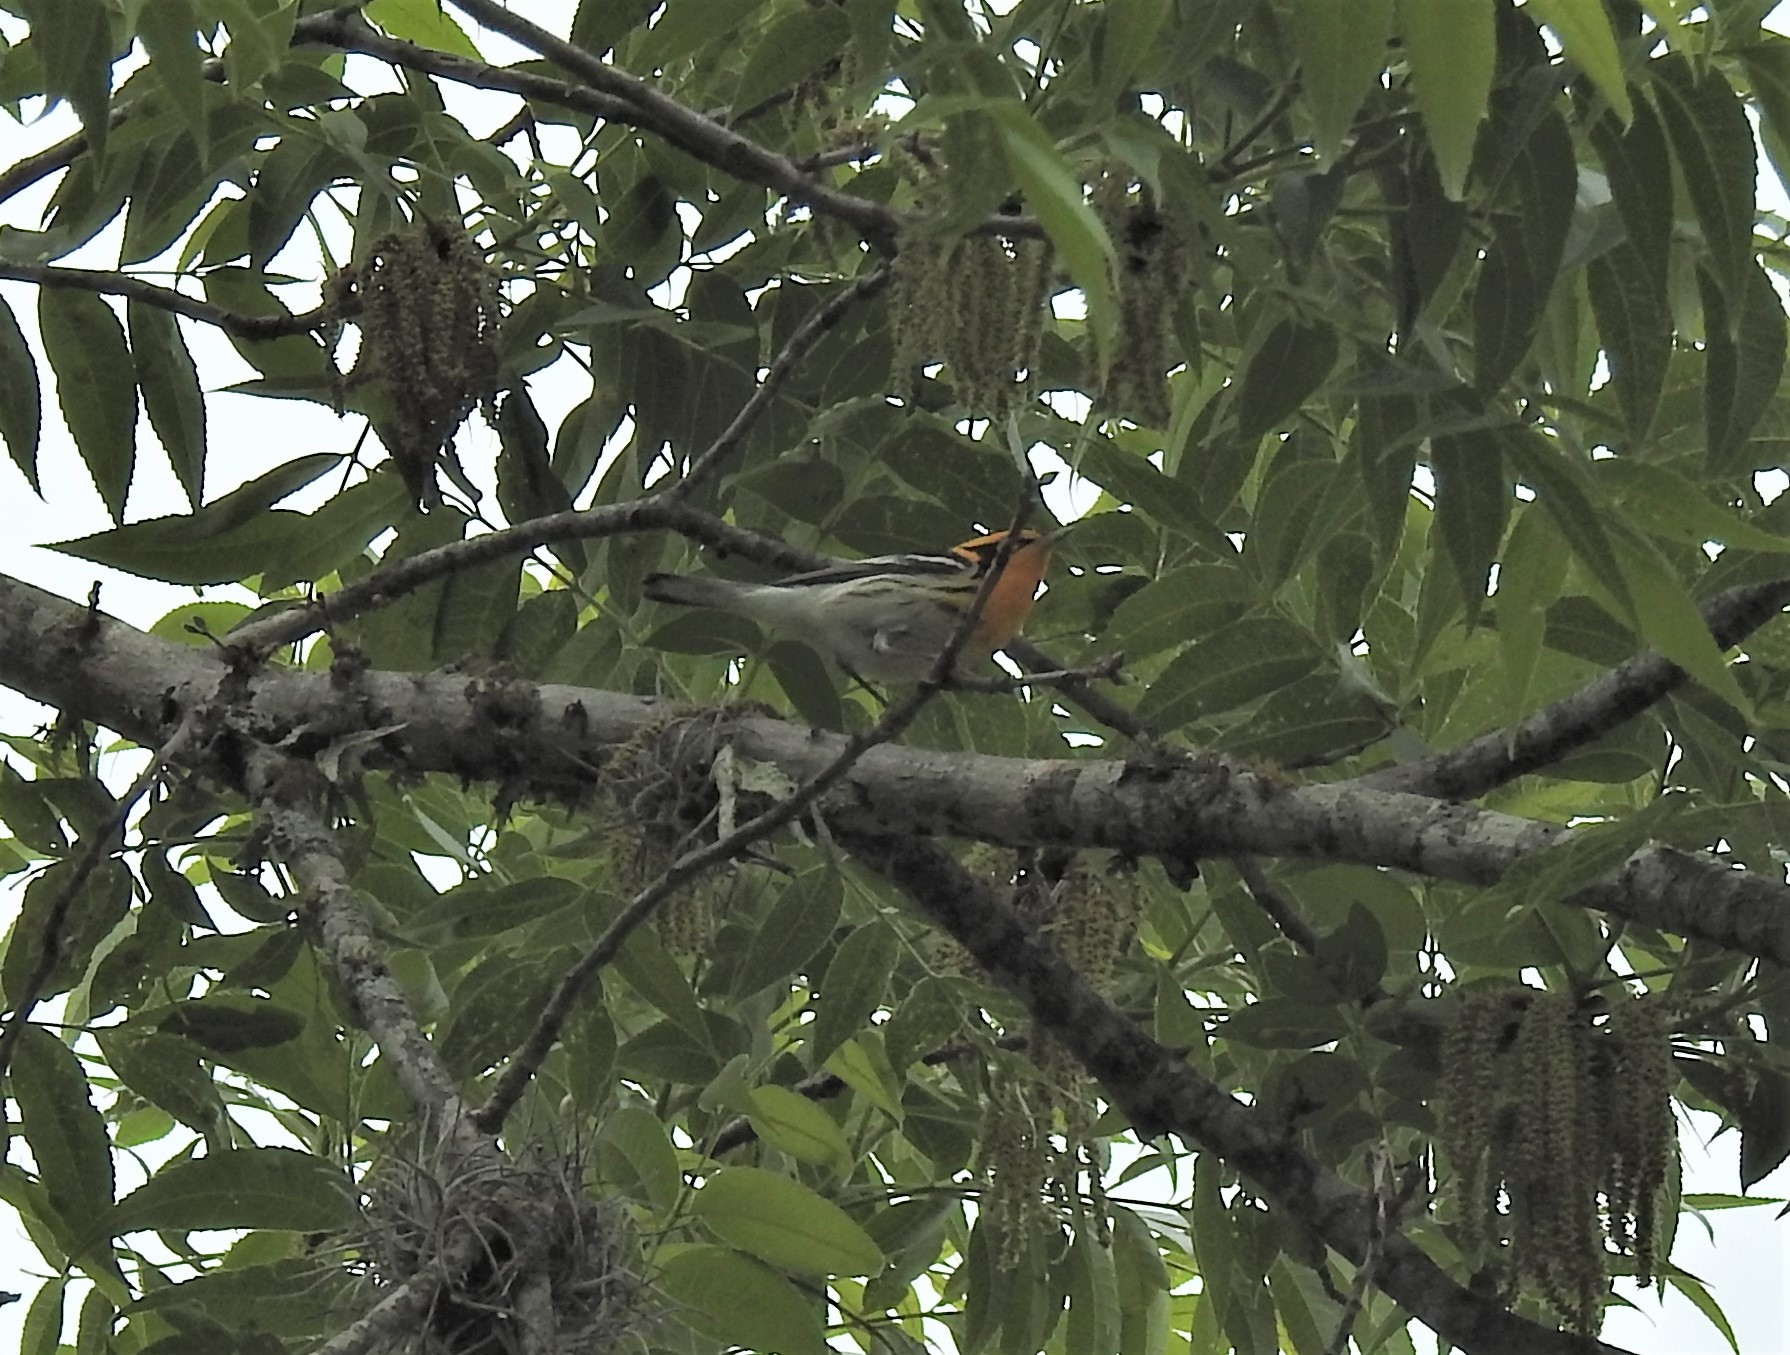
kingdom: Animalia
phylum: Chordata
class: Aves
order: Passeriformes
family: Parulidae
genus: Setophaga
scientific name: Setophaga fusca
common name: Blackburnian warbler
